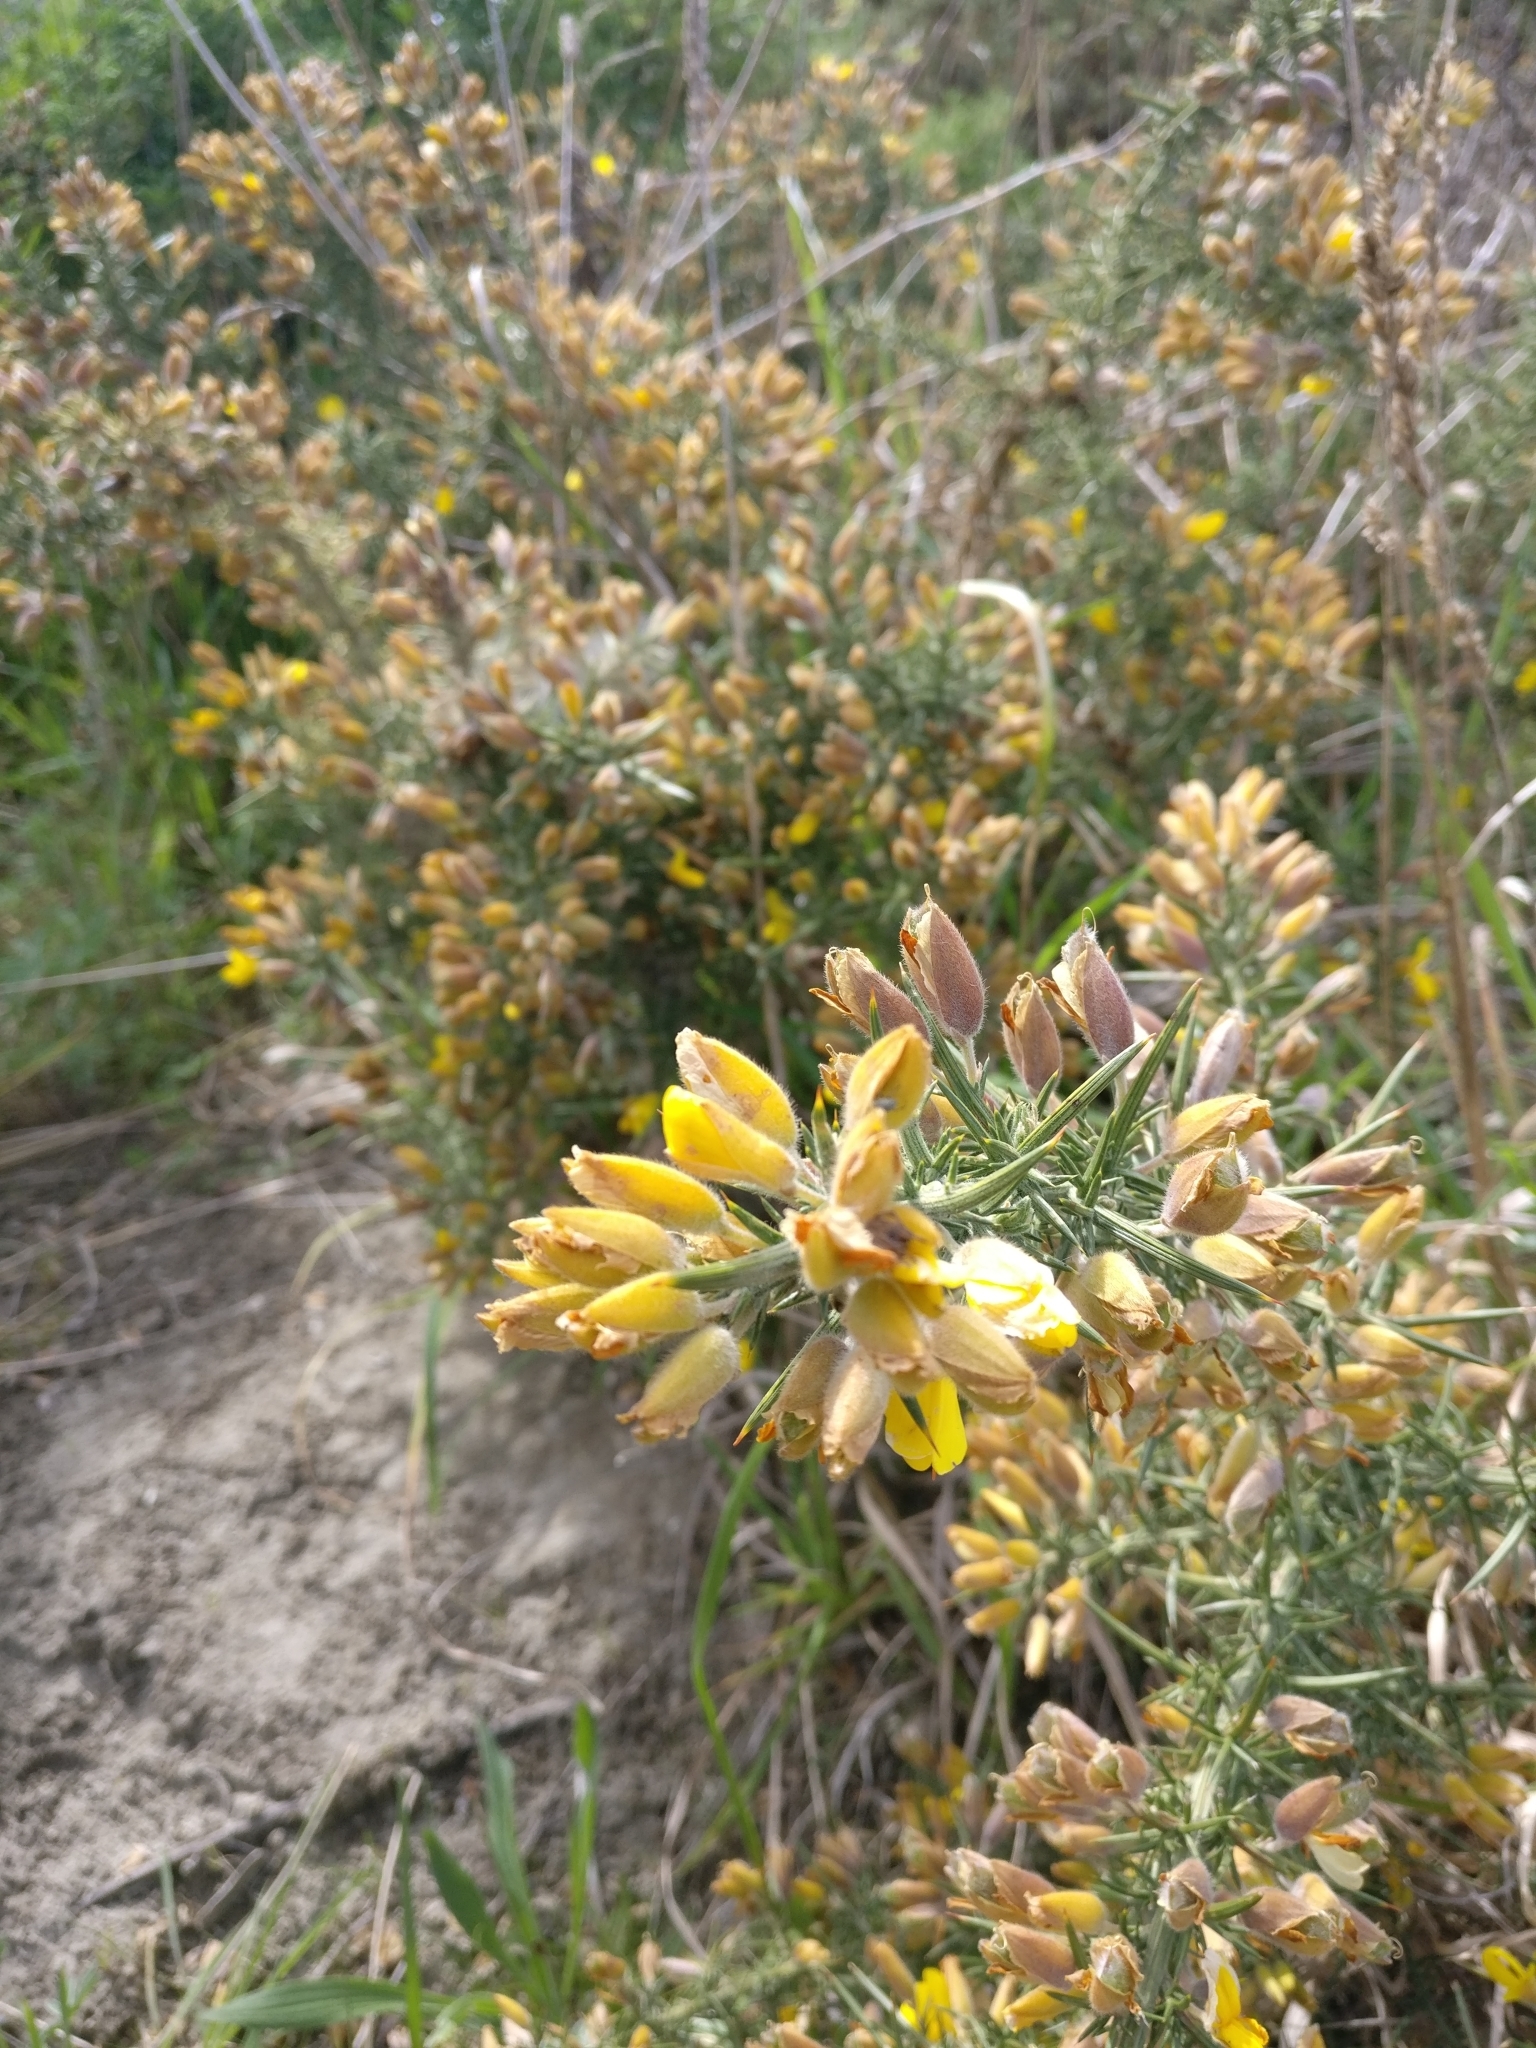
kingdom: Plantae
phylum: Tracheophyta
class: Magnoliopsida
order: Fabales
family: Fabaceae
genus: Ulex
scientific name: Ulex europaeus
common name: Common gorse
